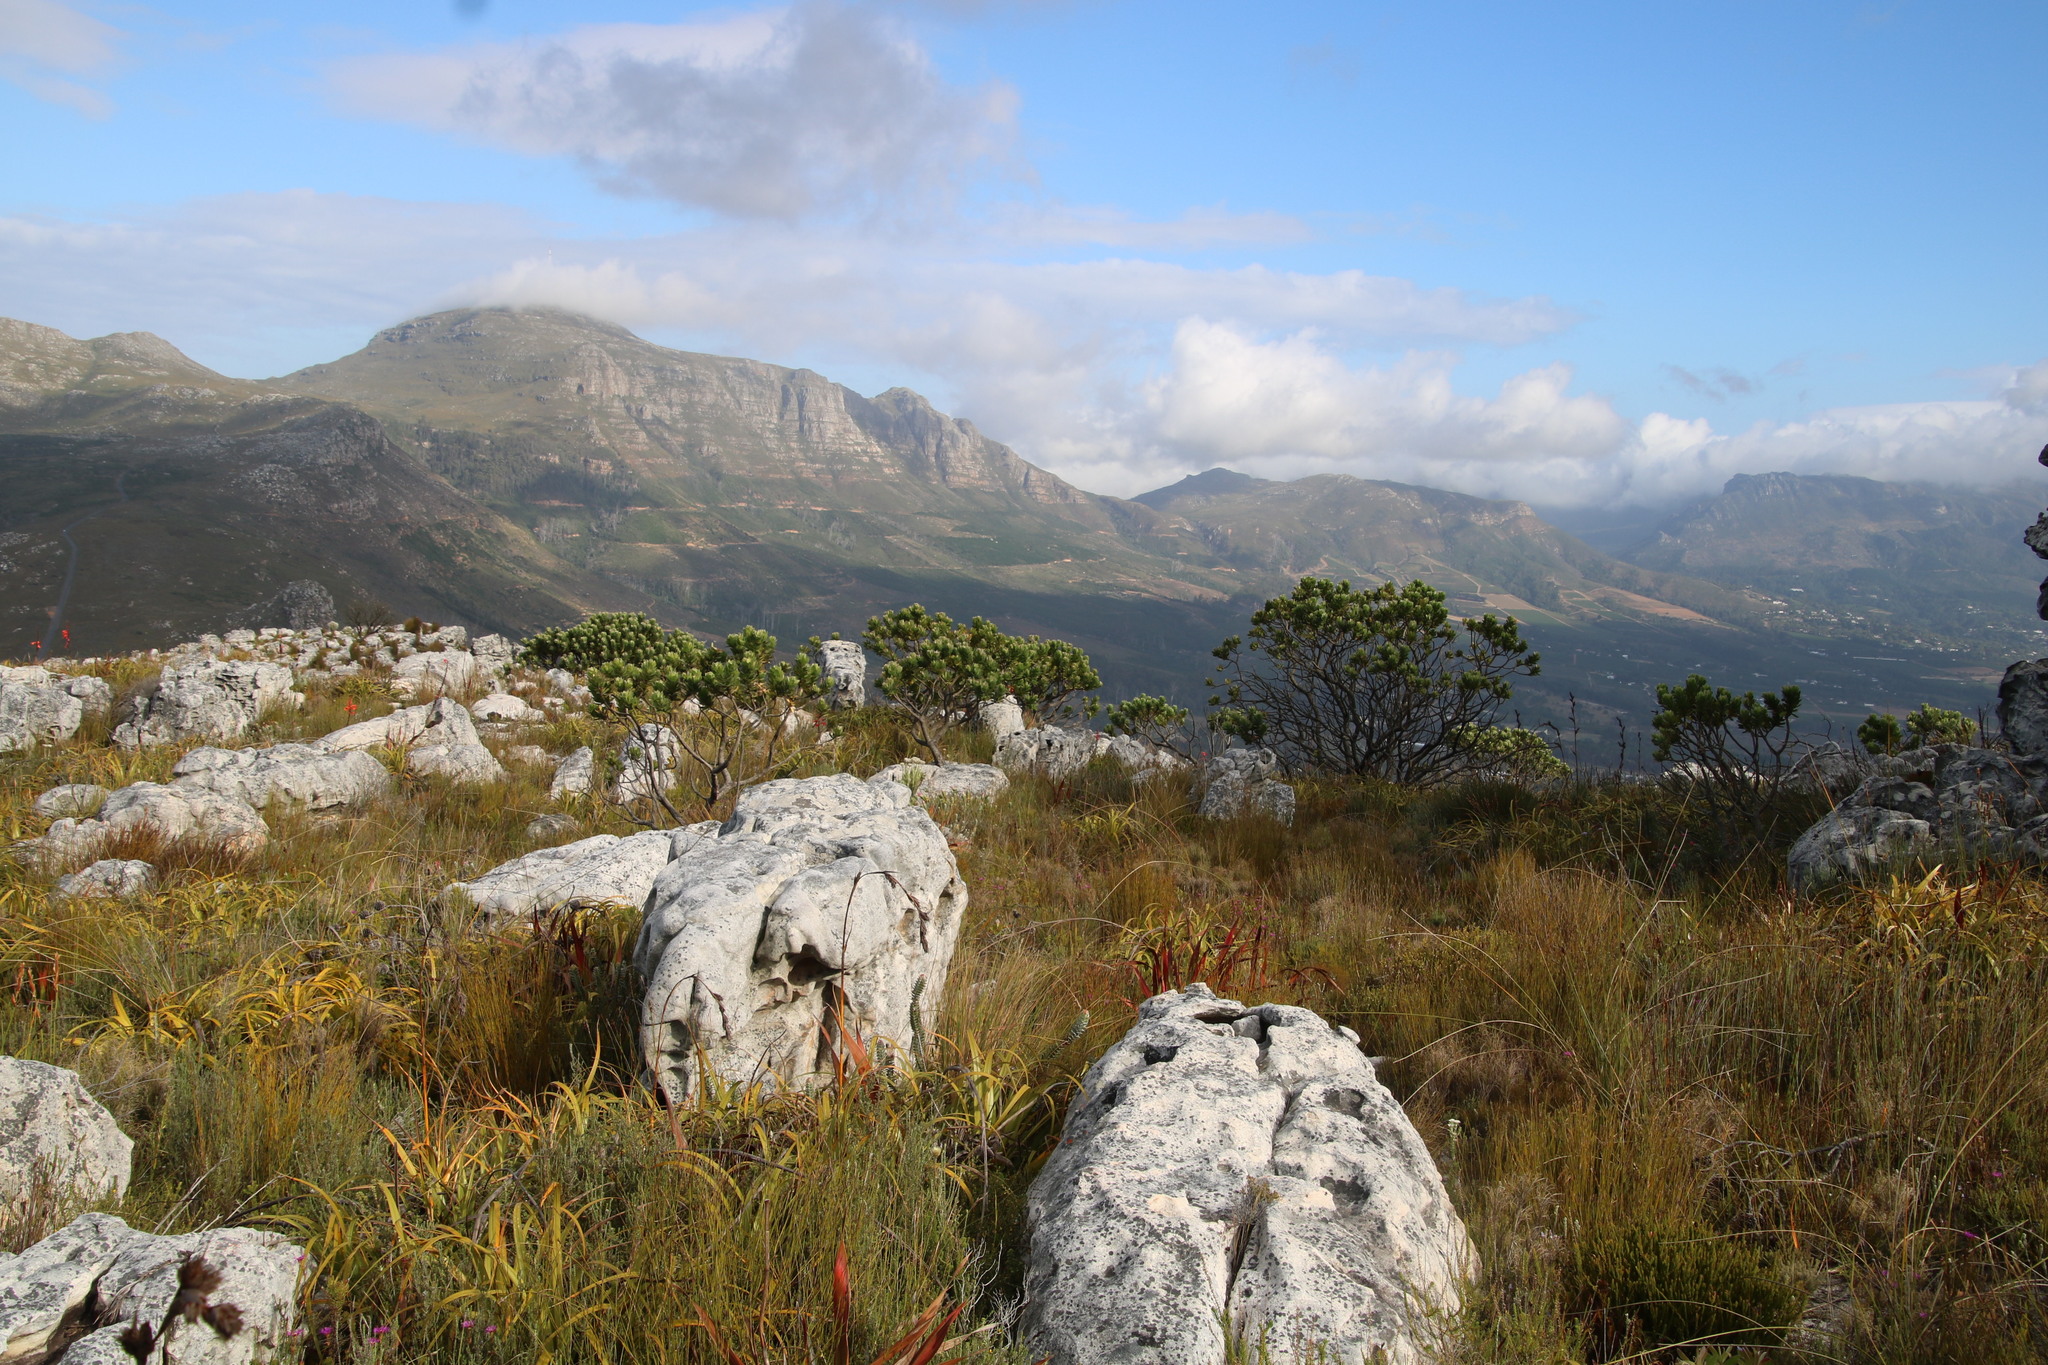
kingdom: Plantae
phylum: Tracheophyta
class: Magnoliopsida
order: Proteales
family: Proteaceae
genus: Mimetes
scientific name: Mimetes fimbriifolius
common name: Fringed bottlebrush
